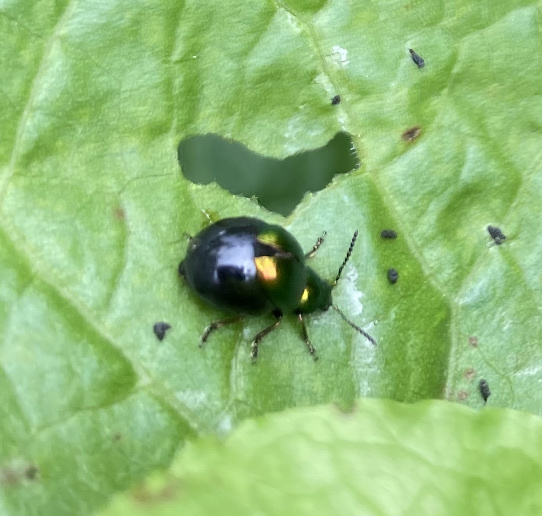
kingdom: Animalia
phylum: Arthropoda
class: Insecta
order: Coleoptera
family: Chrysomelidae
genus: Gastrophysa
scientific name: Gastrophysa viridula
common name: Green dock beetle
